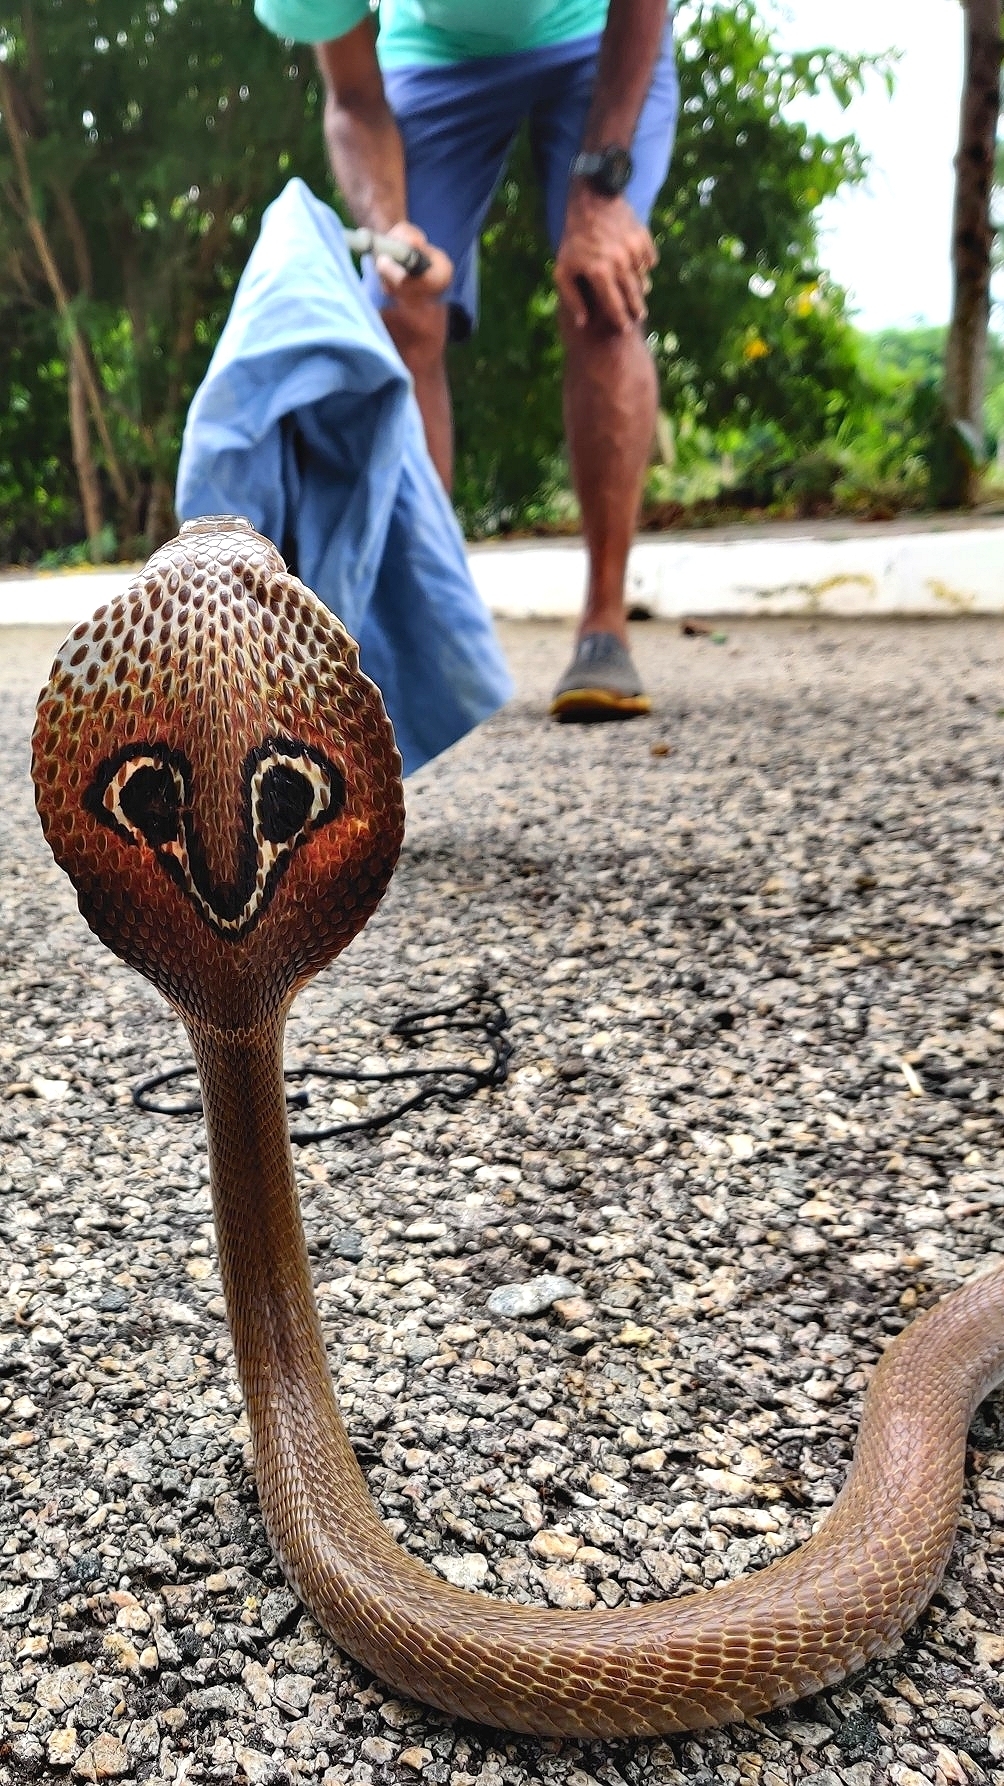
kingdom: Animalia
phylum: Chordata
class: Squamata
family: Elapidae
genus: Naja
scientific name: Naja naja
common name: Indian cobra
